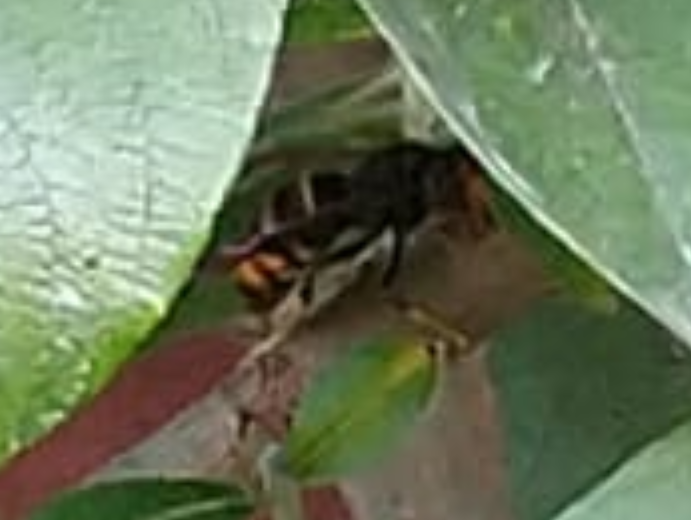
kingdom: Animalia
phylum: Arthropoda
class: Insecta
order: Hymenoptera
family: Vespidae
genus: Vespa
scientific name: Vespa velutina
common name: Asian hornet
